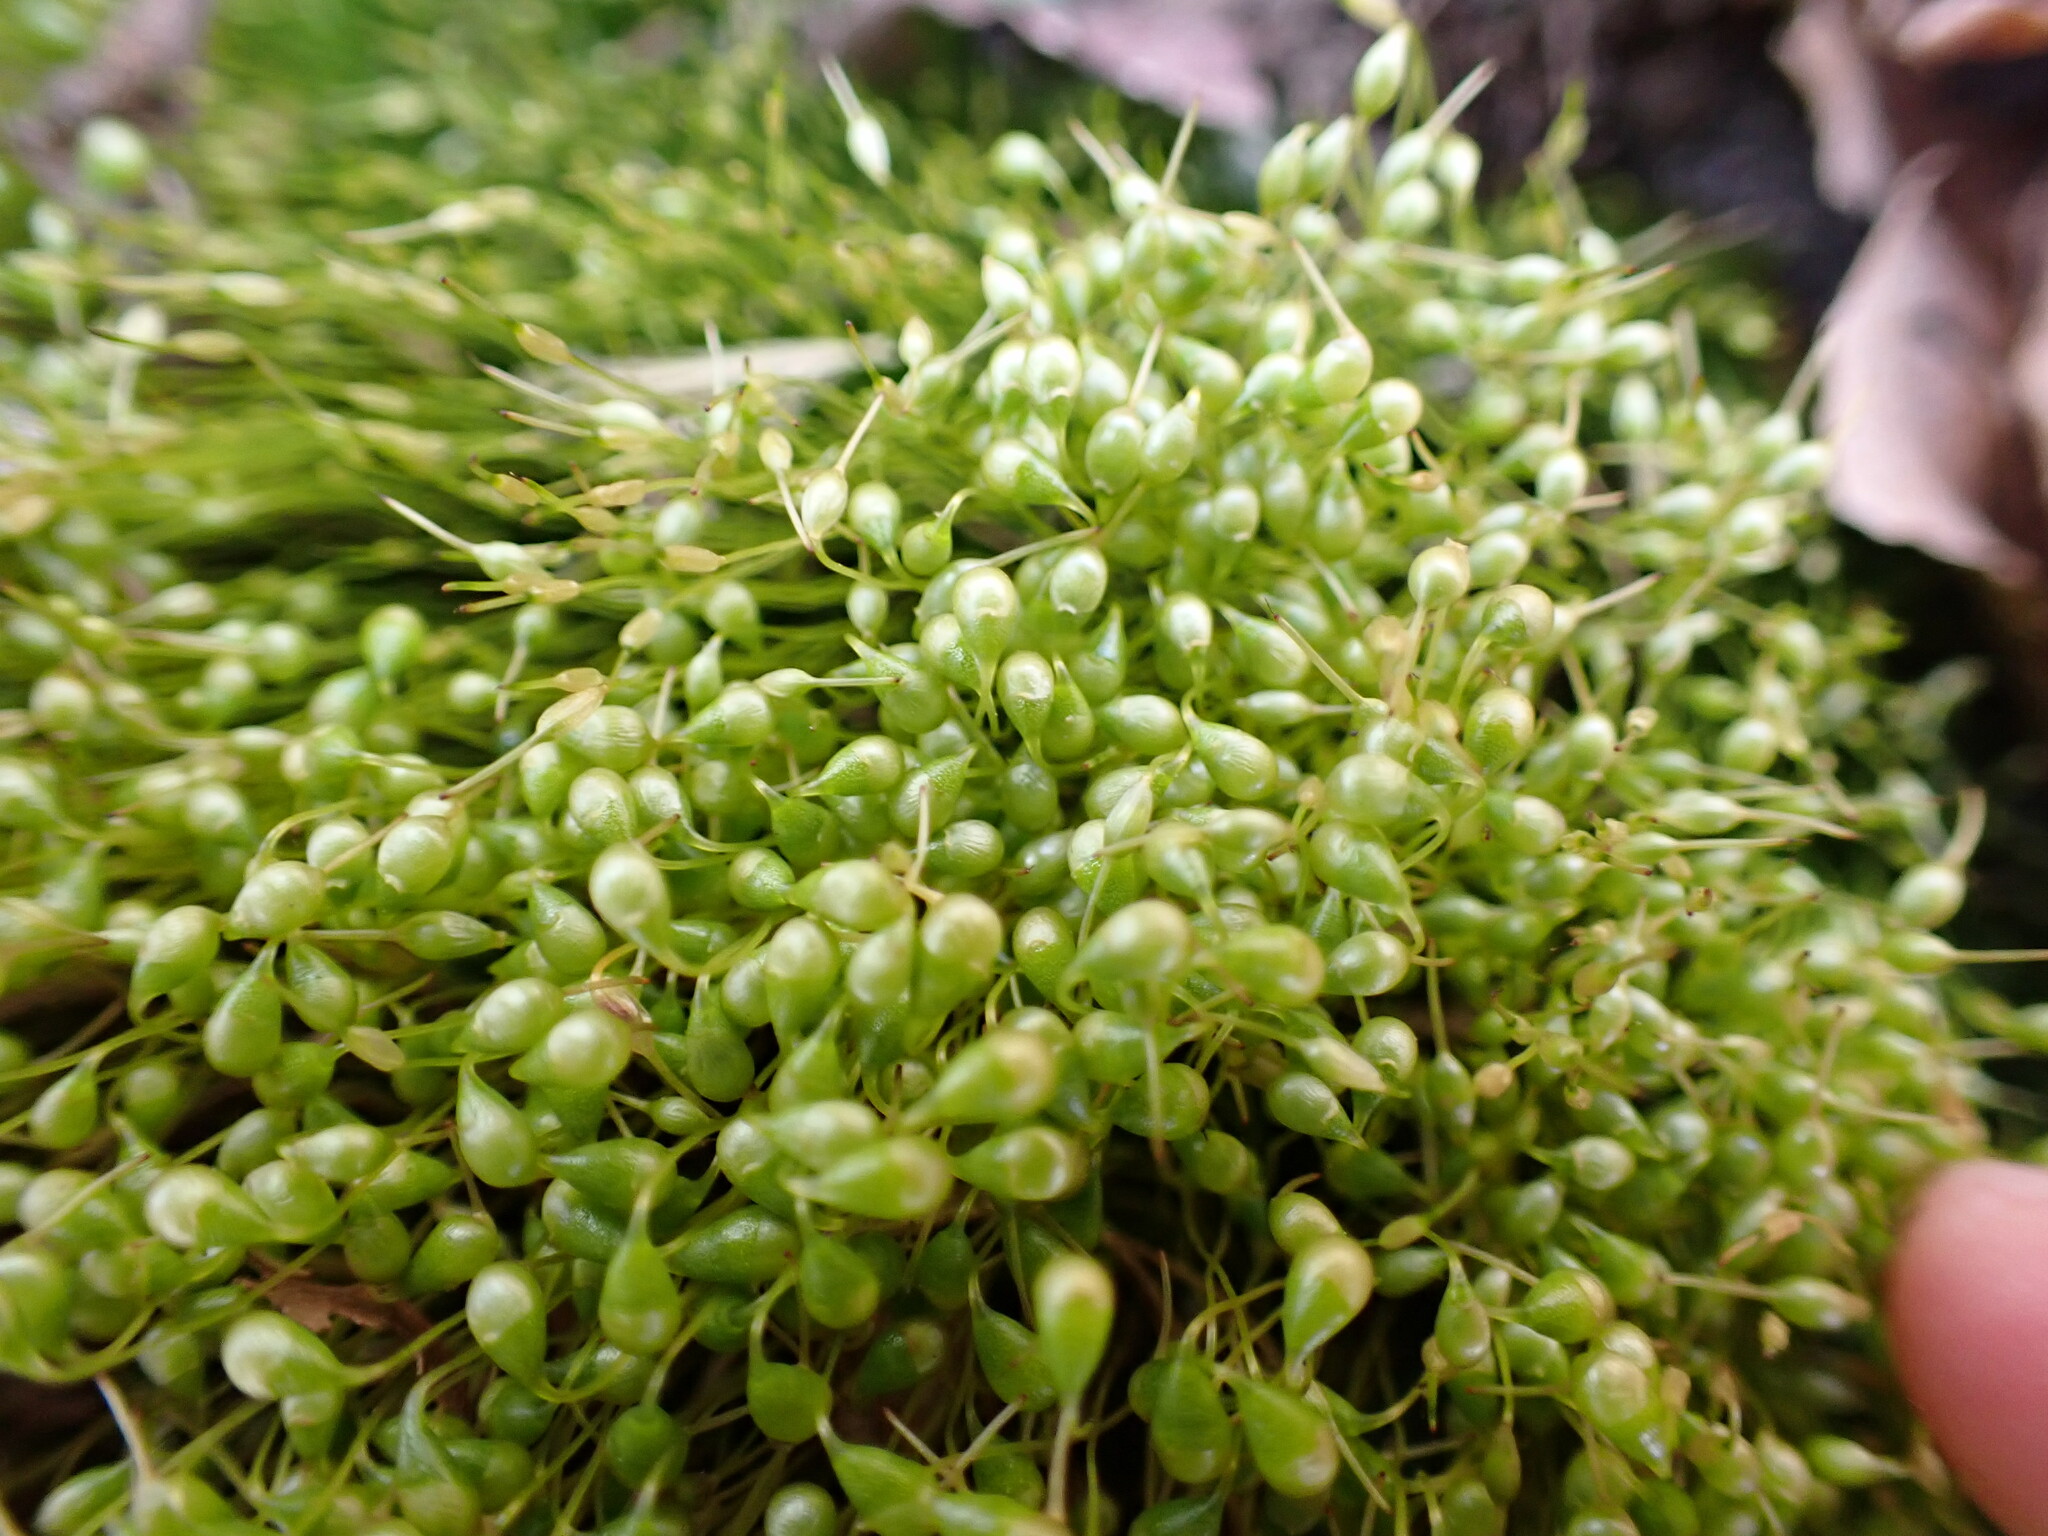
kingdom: Plantae
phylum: Bryophyta
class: Bryopsida
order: Funariales
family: Funariaceae
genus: Funaria
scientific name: Funaria hygrometrica
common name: Common cord moss
